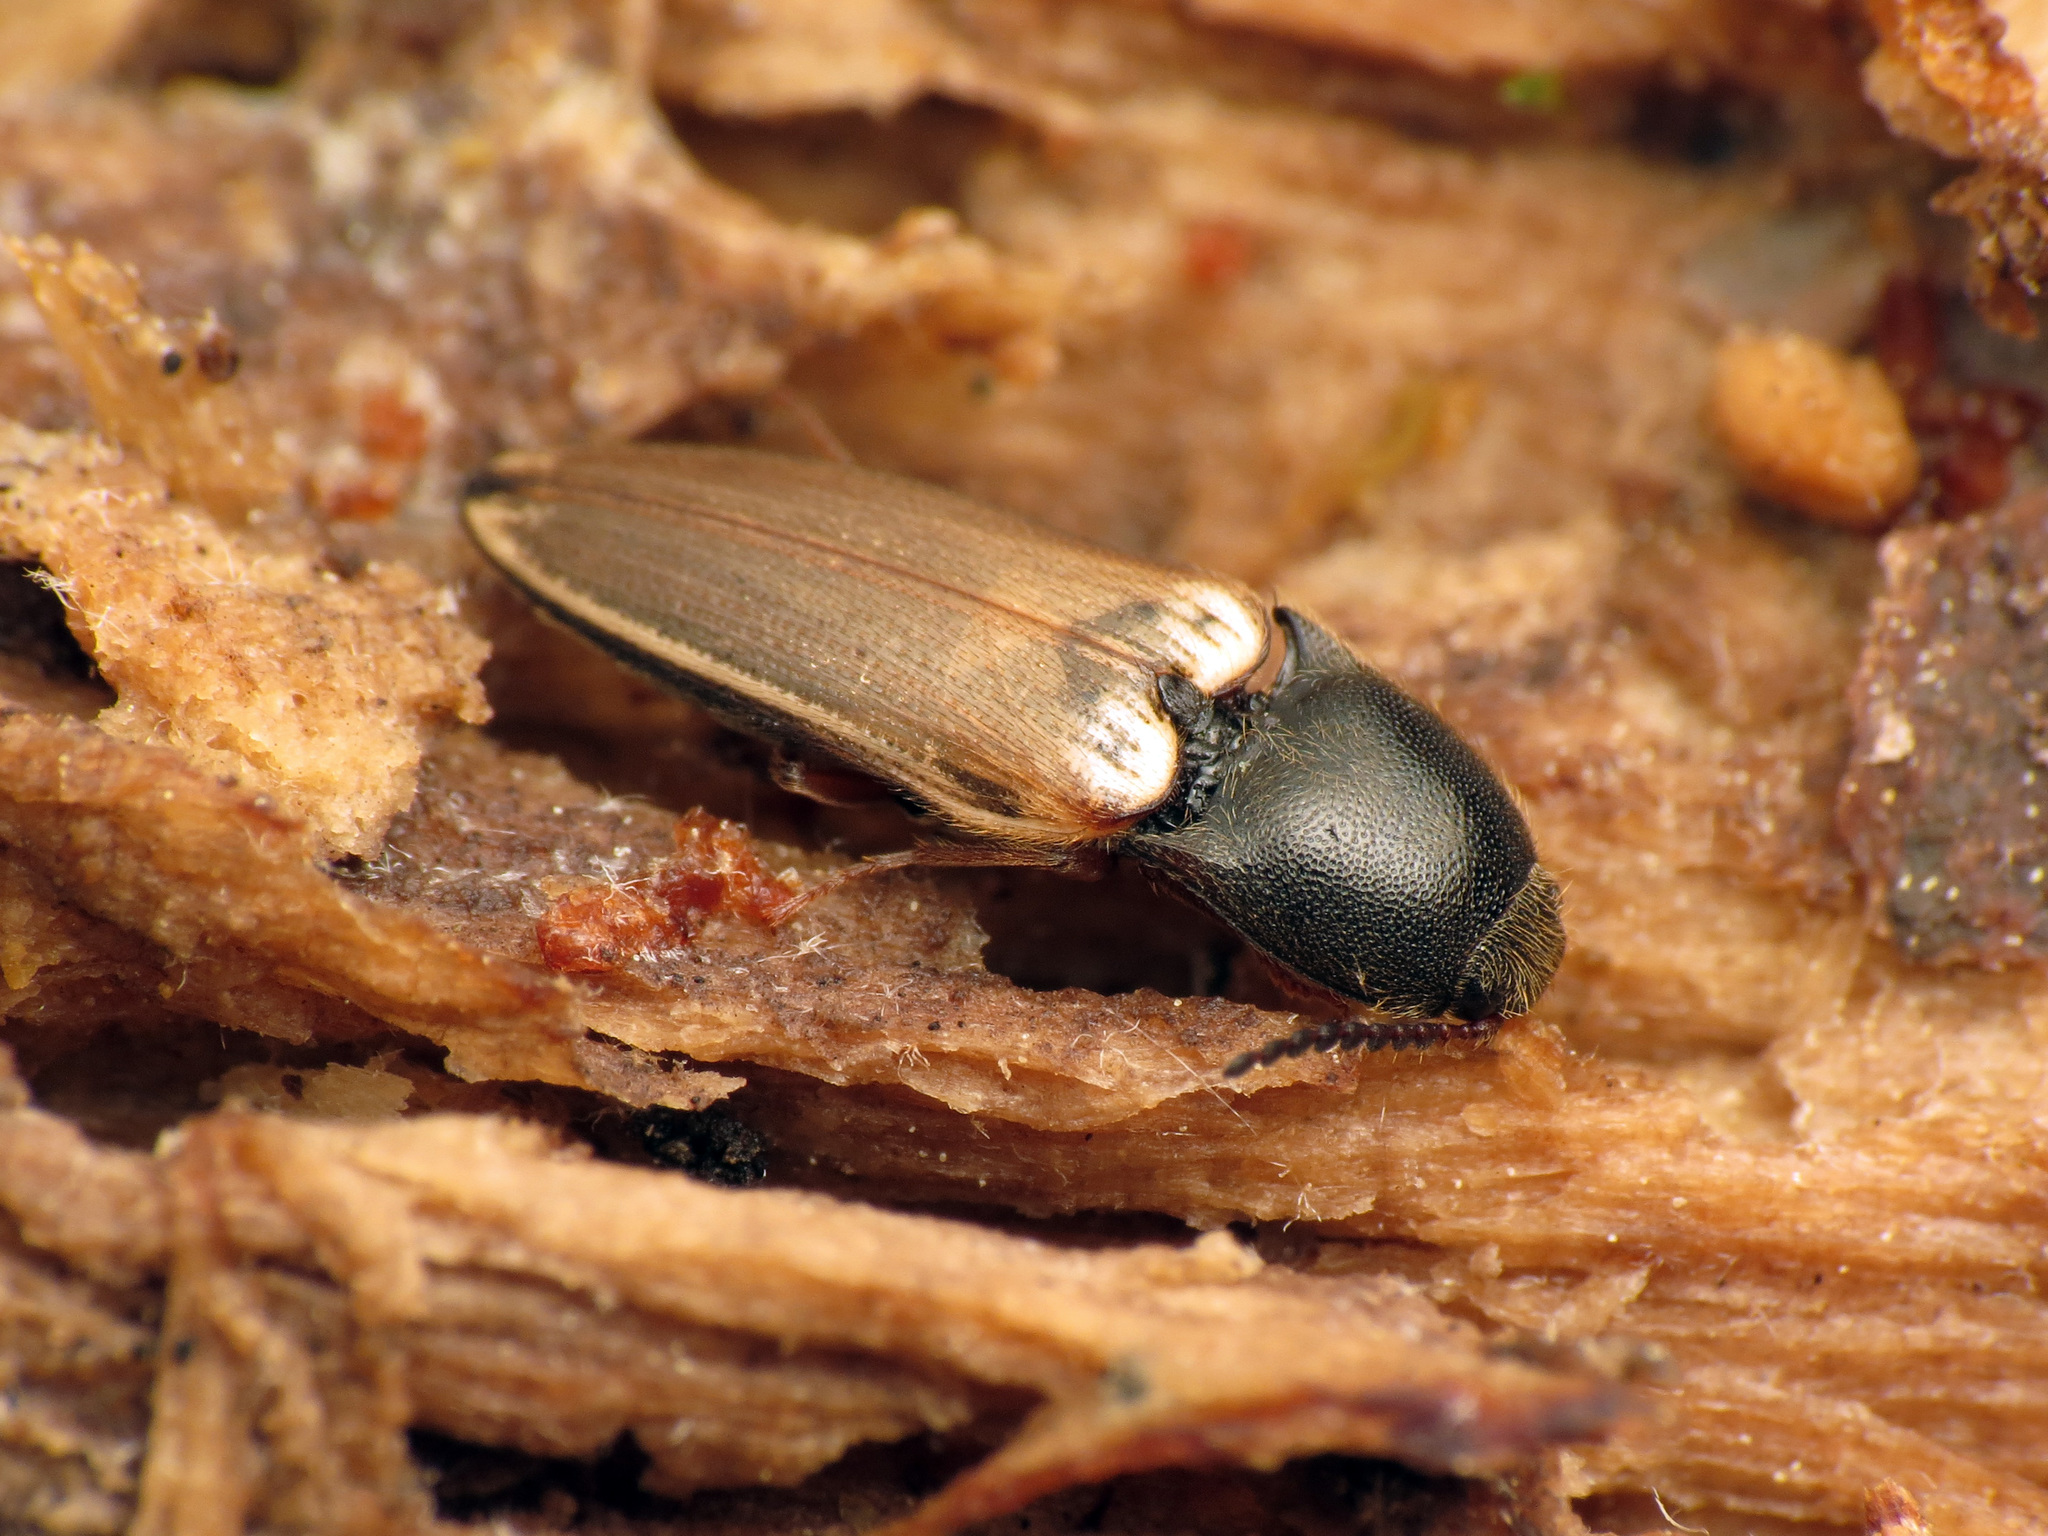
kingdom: Animalia
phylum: Arthropoda
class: Insecta
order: Coleoptera
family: Elateridae
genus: Ampedus
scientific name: Ampedus nigricollis
